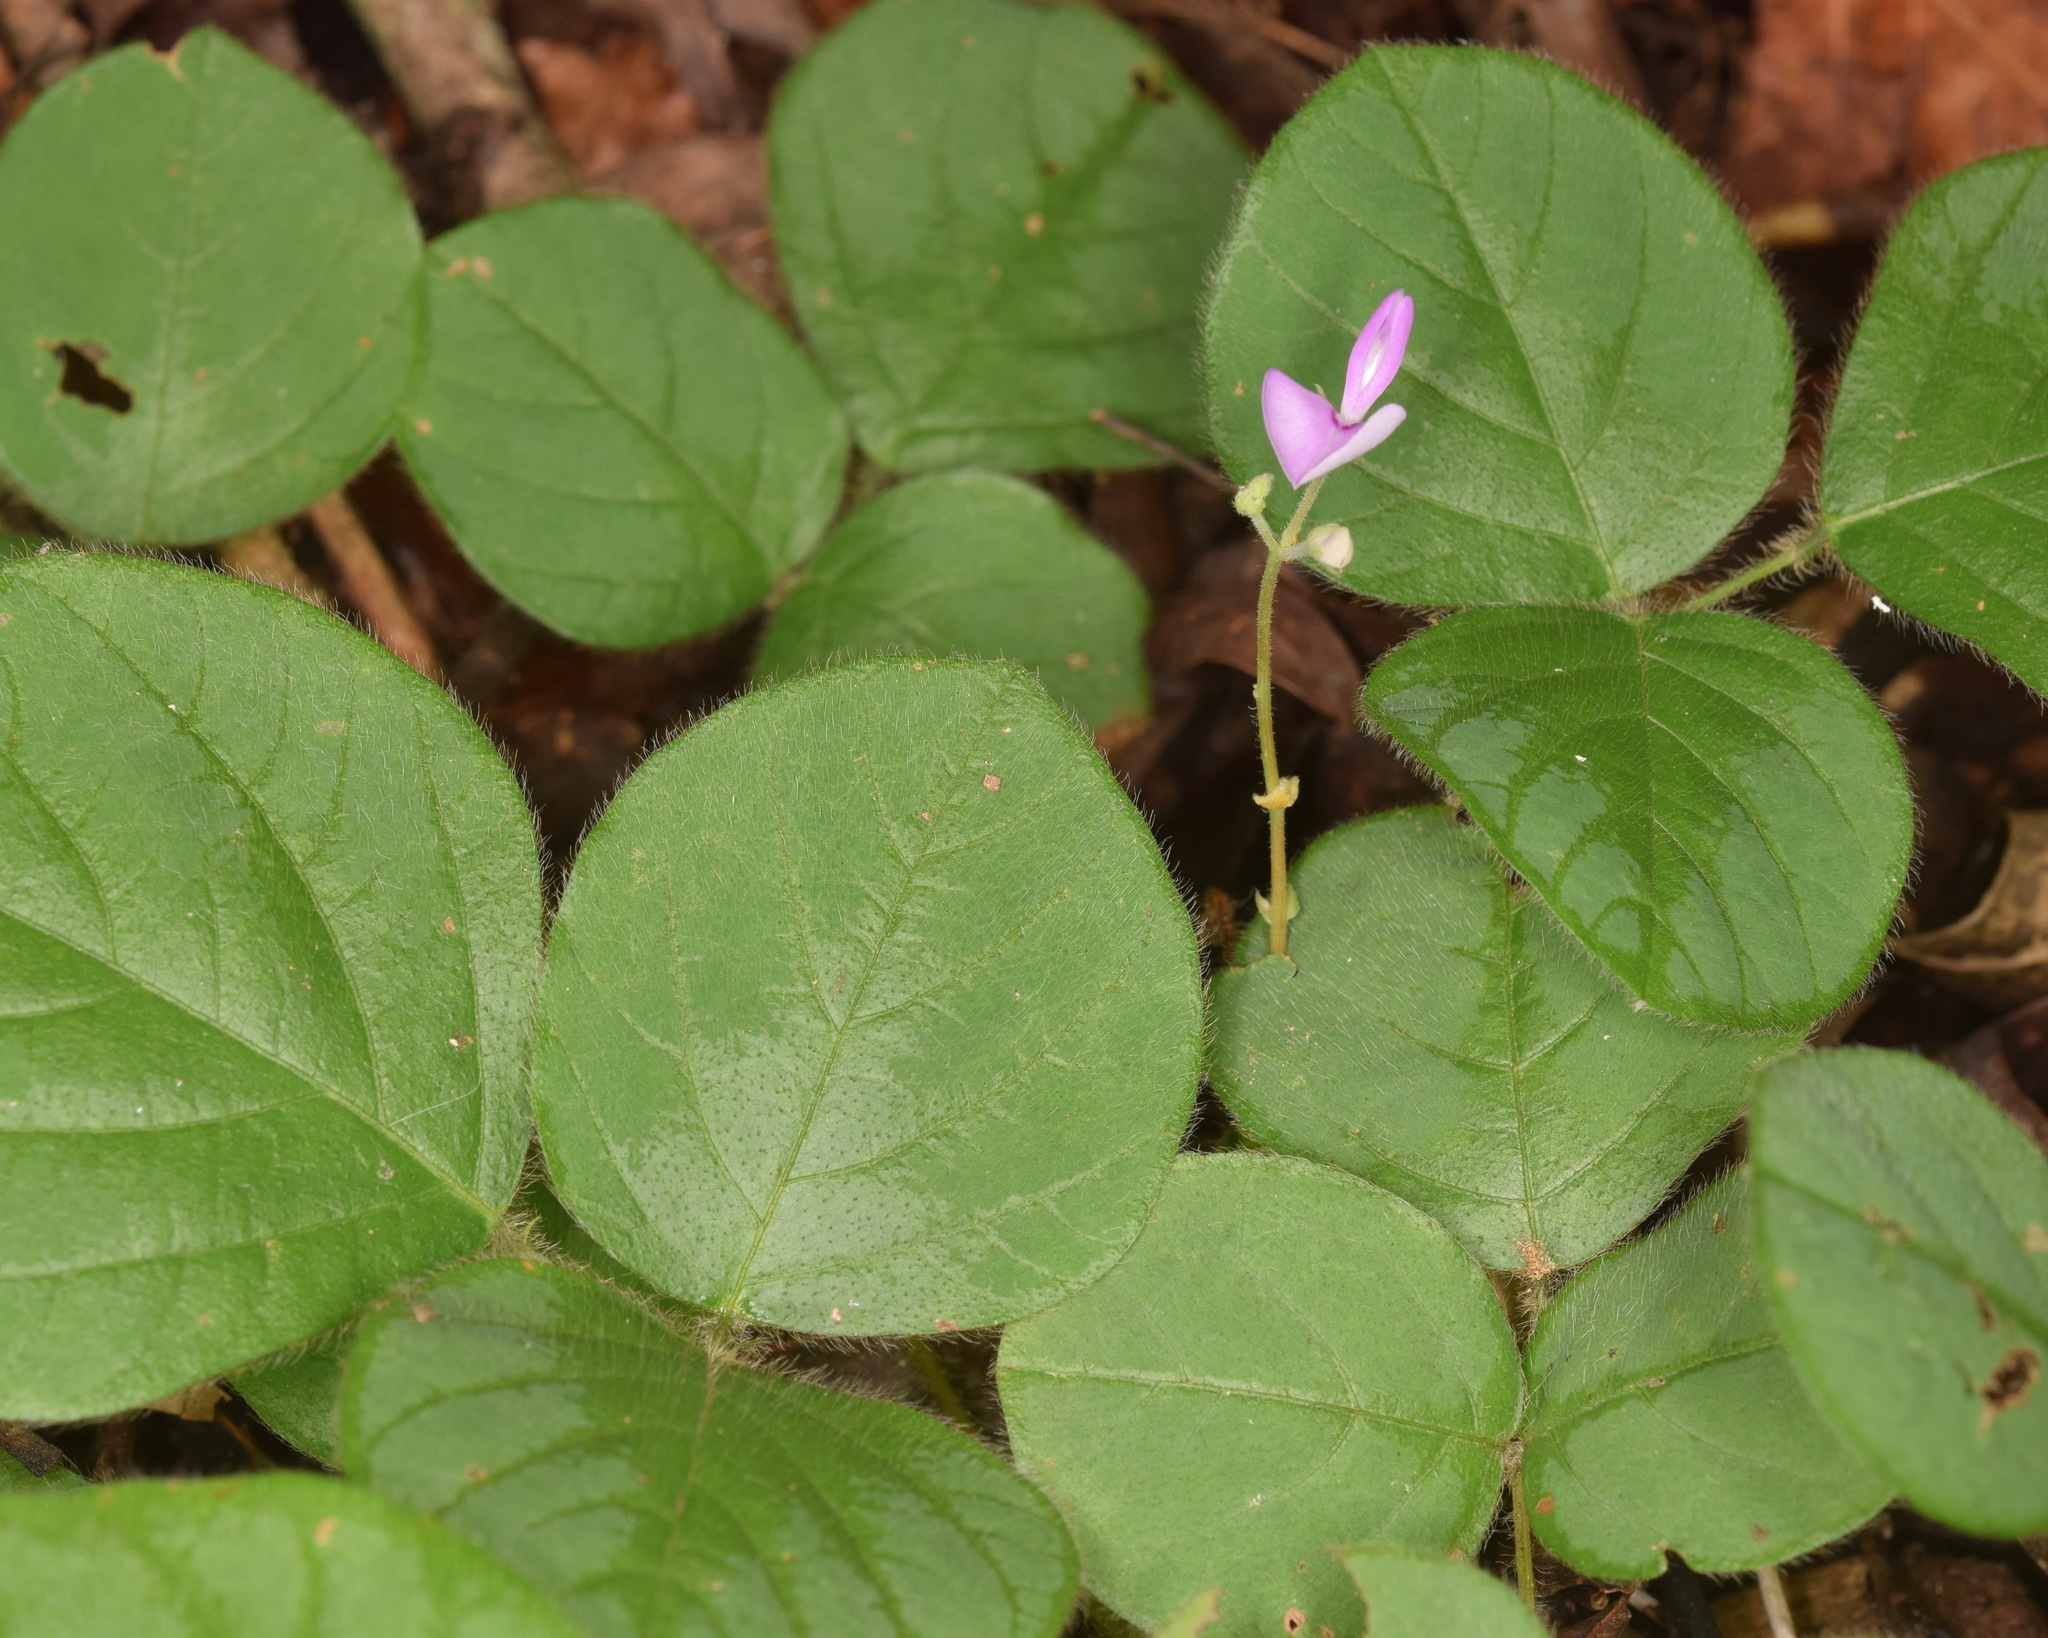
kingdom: Plantae
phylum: Tracheophyta
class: Magnoliopsida
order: Fabales
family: Fabaceae
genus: Desmodium
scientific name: Desmodium rotundifolium
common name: Dollarleaf
